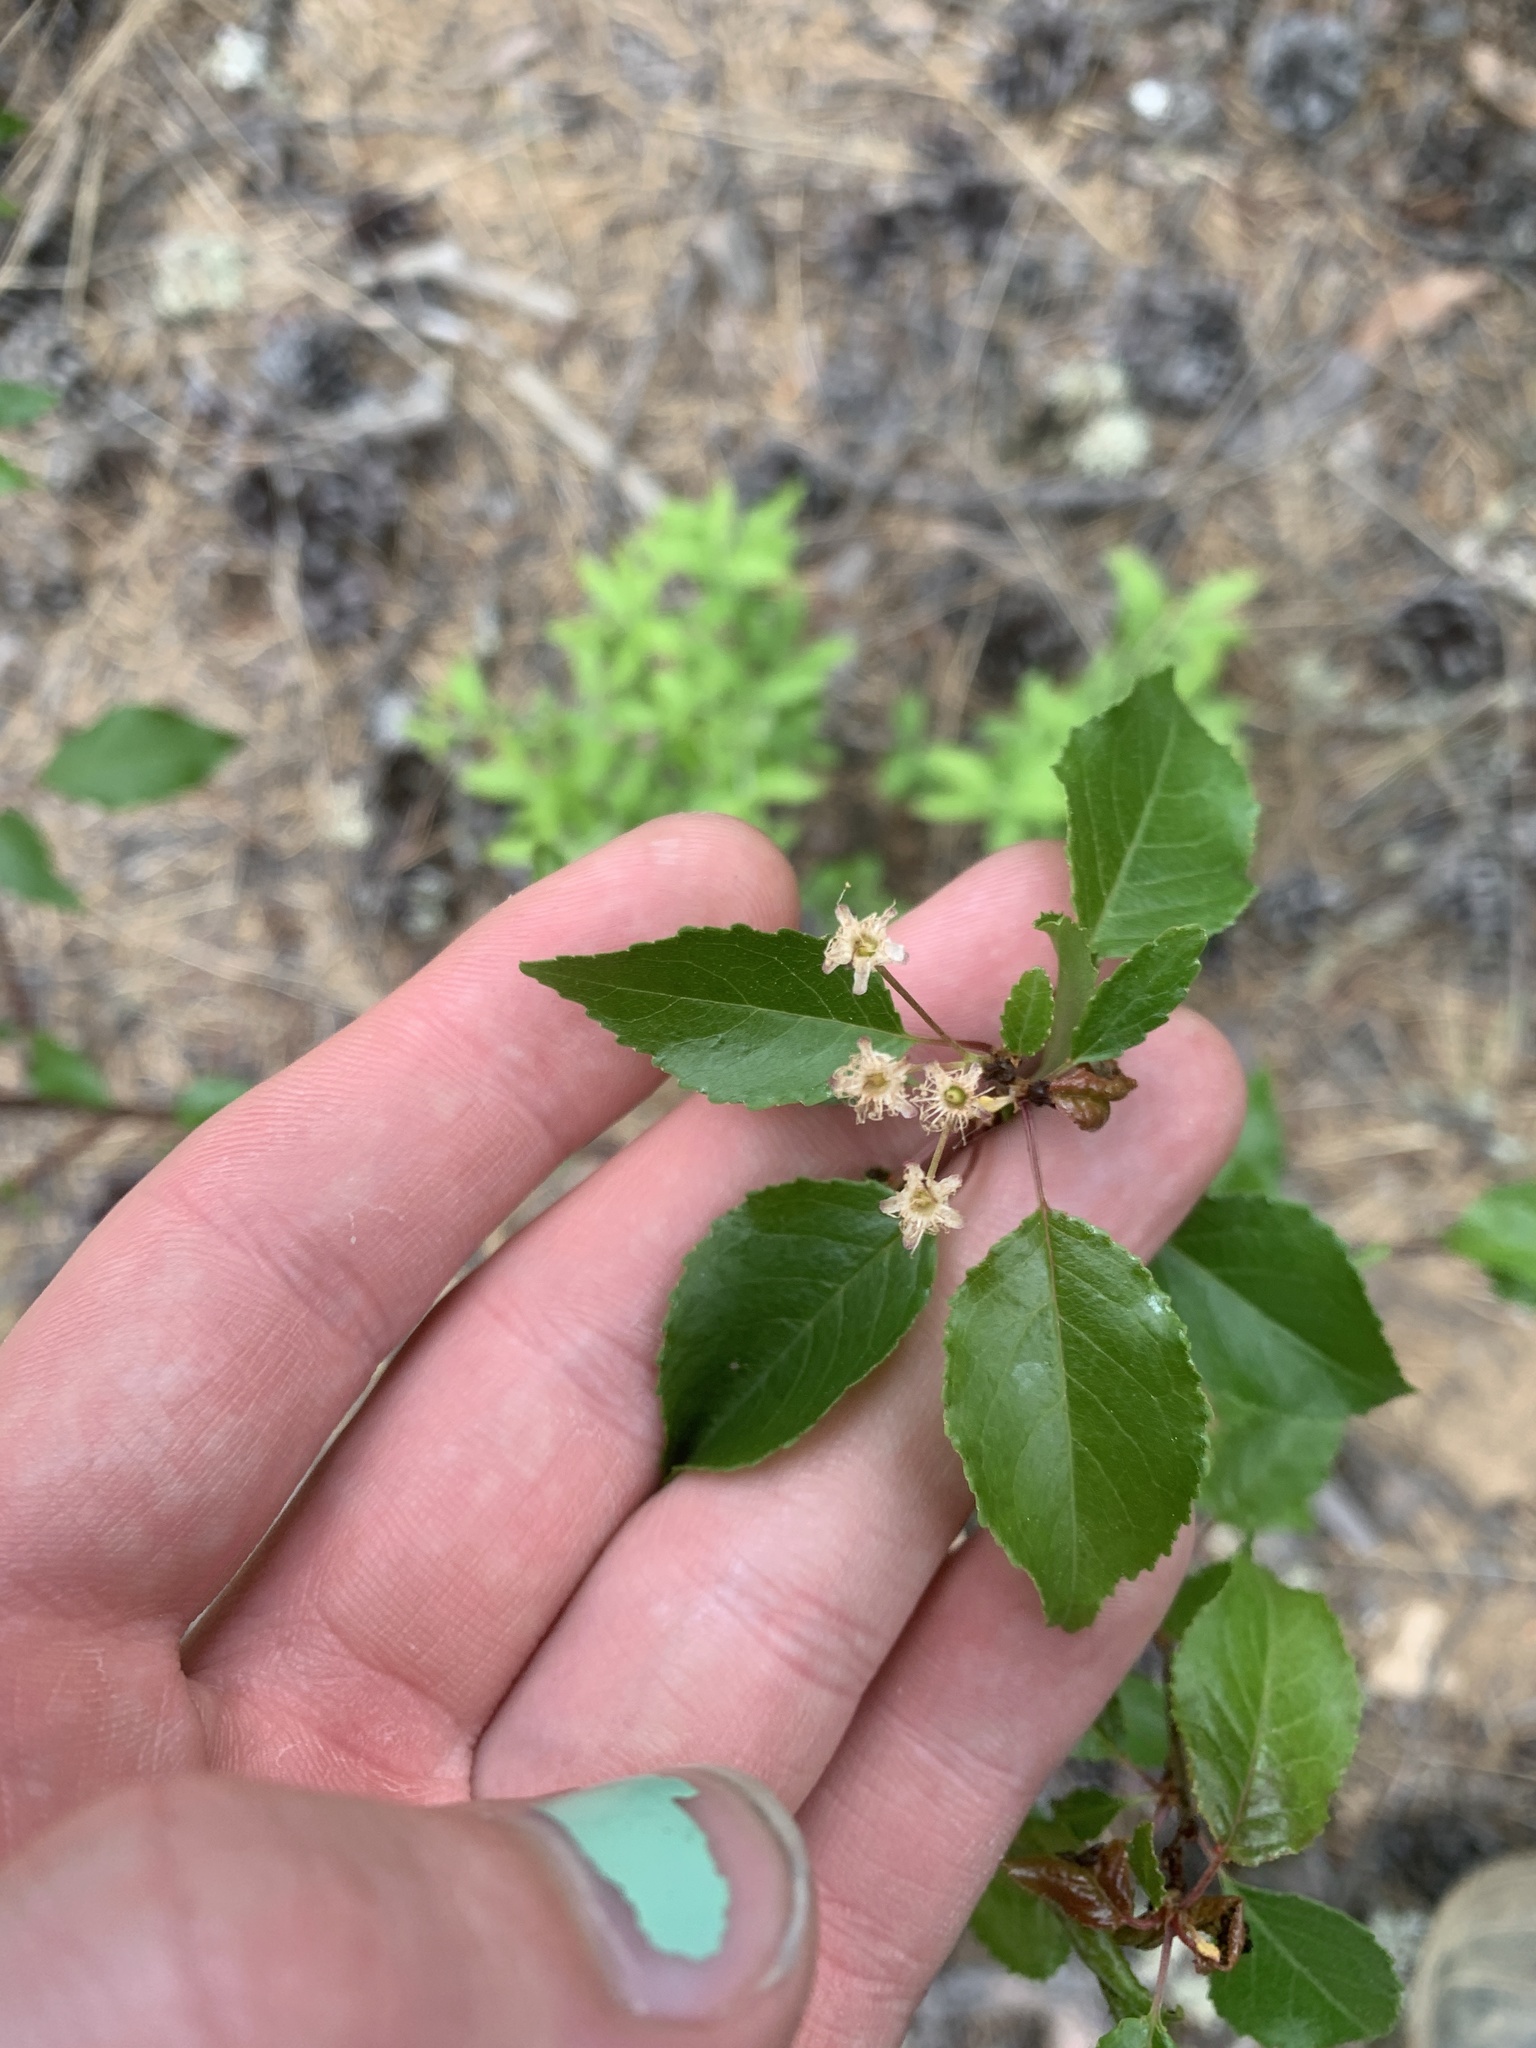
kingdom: Plantae
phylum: Tracheophyta
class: Magnoliopsida
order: Rosales
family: Rosaceae
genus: Prunus
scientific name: Prunus pensylvanica
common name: Pin cherry
